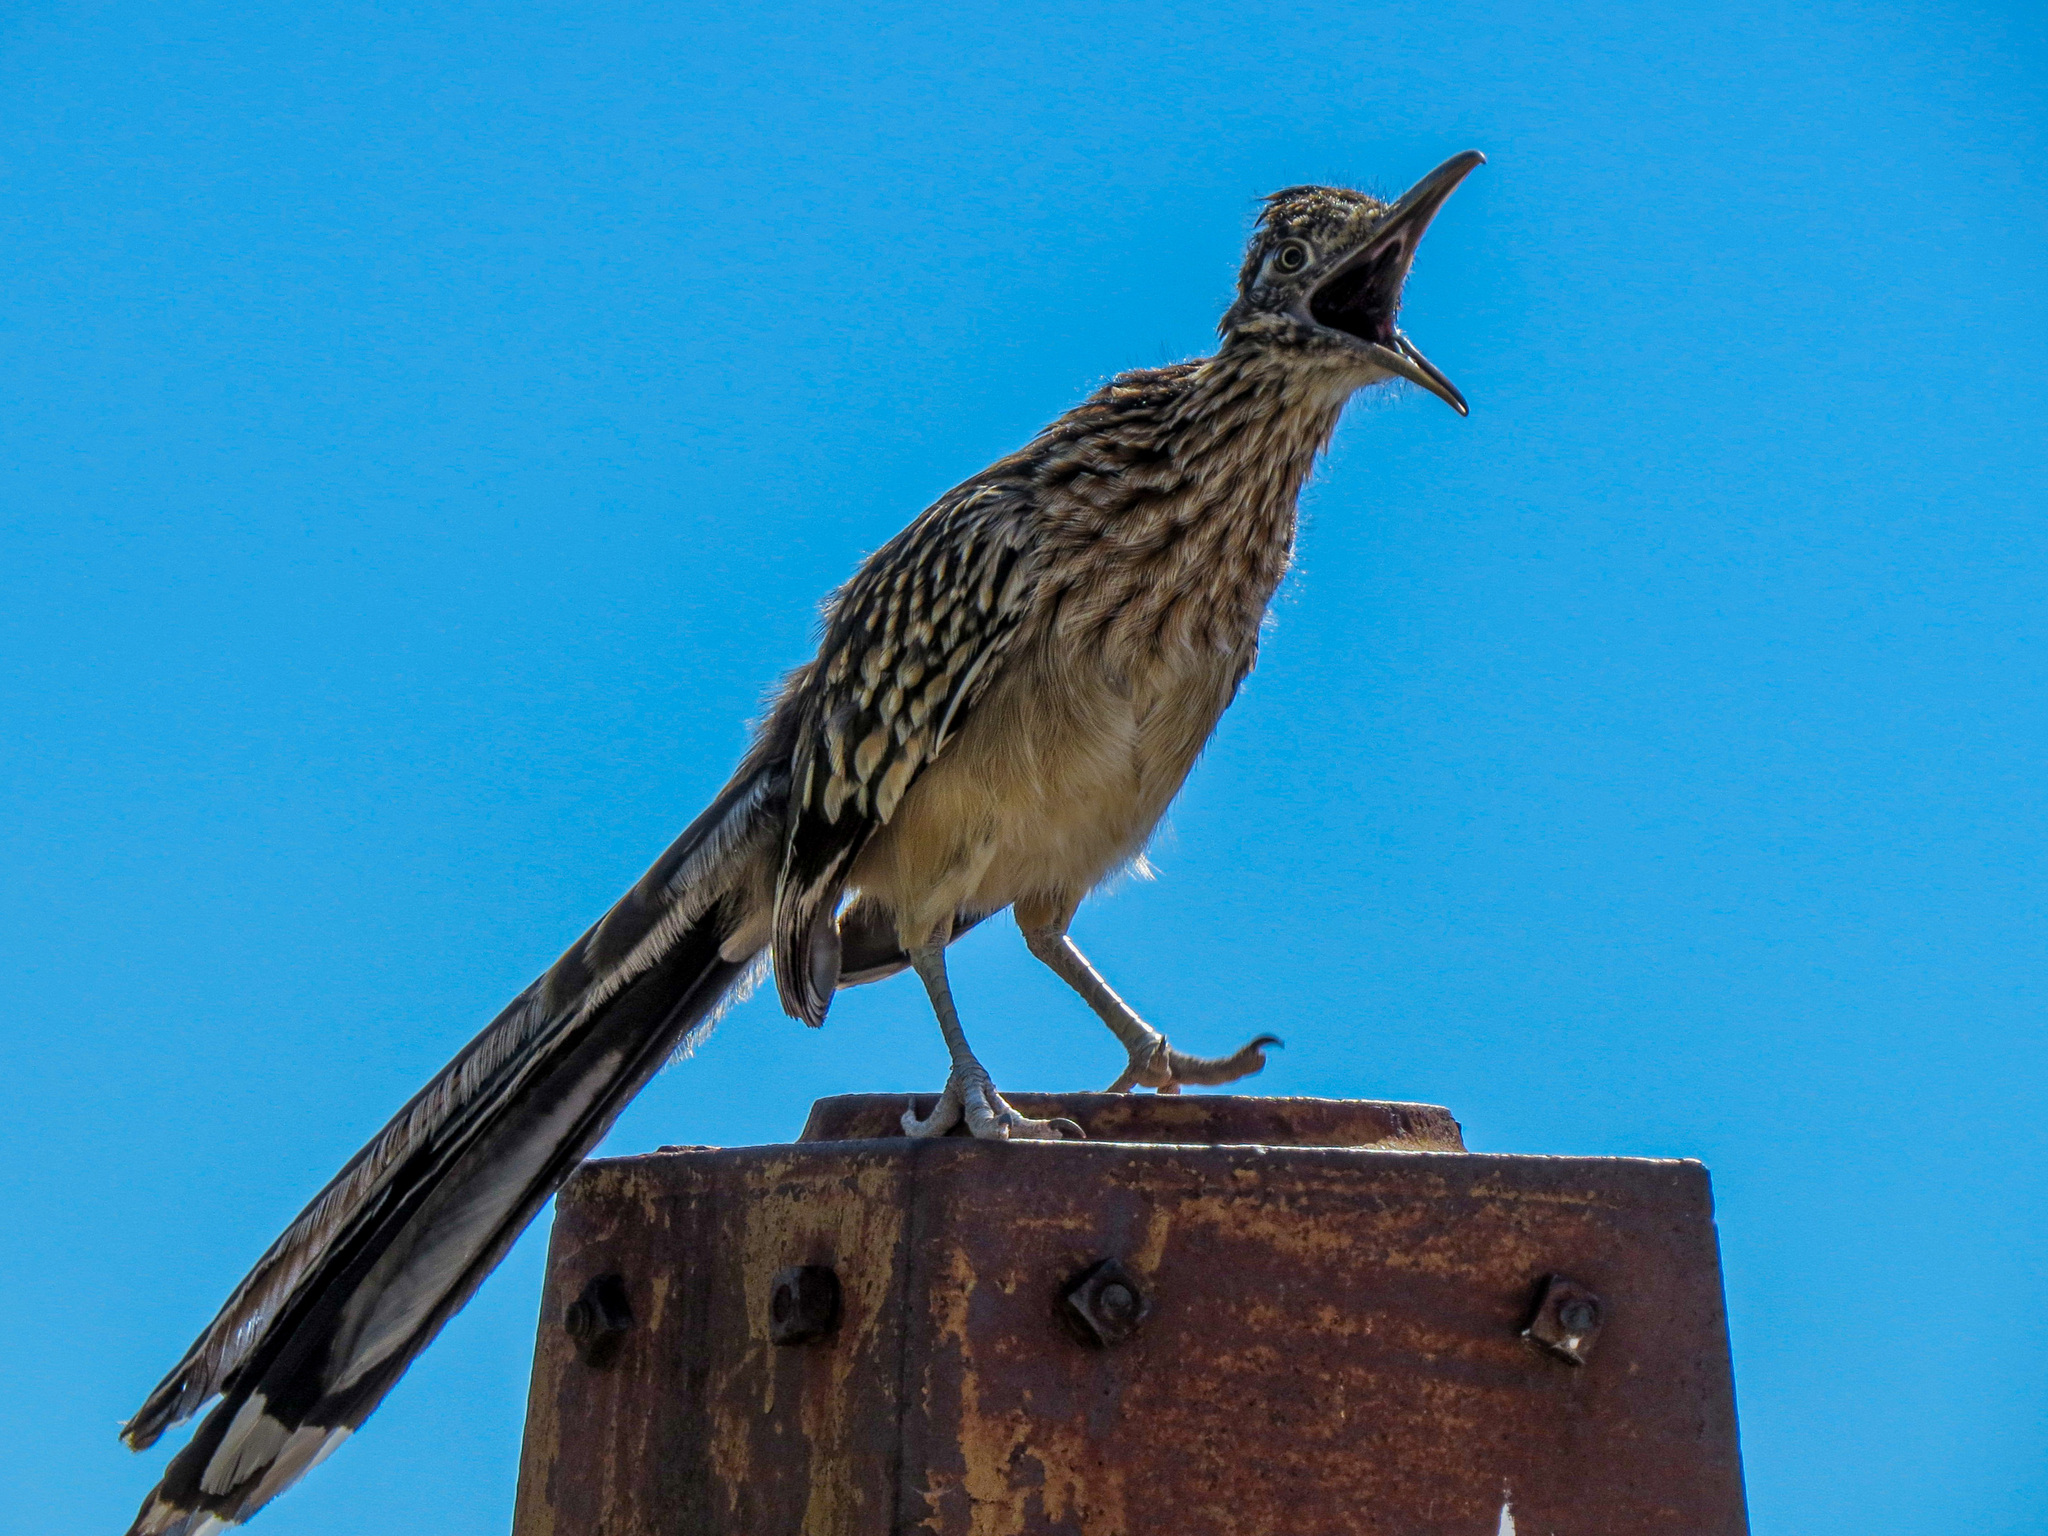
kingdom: Animalia
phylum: Chordata
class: Aves
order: Cuculiformes
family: Cuculidae
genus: Geococcyx
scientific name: Geococcyx californianus
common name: Greater roadrunner
